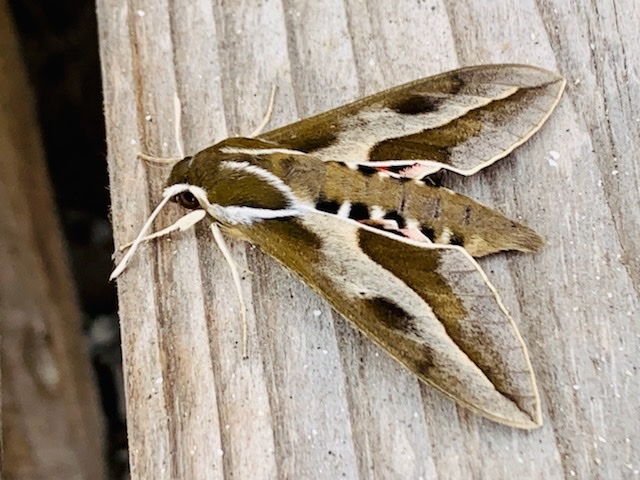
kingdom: Animalia
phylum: Arthropoda
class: Insecta
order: Lepidoptera
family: Sphingidae
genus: Hyles
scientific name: Hyles annei
